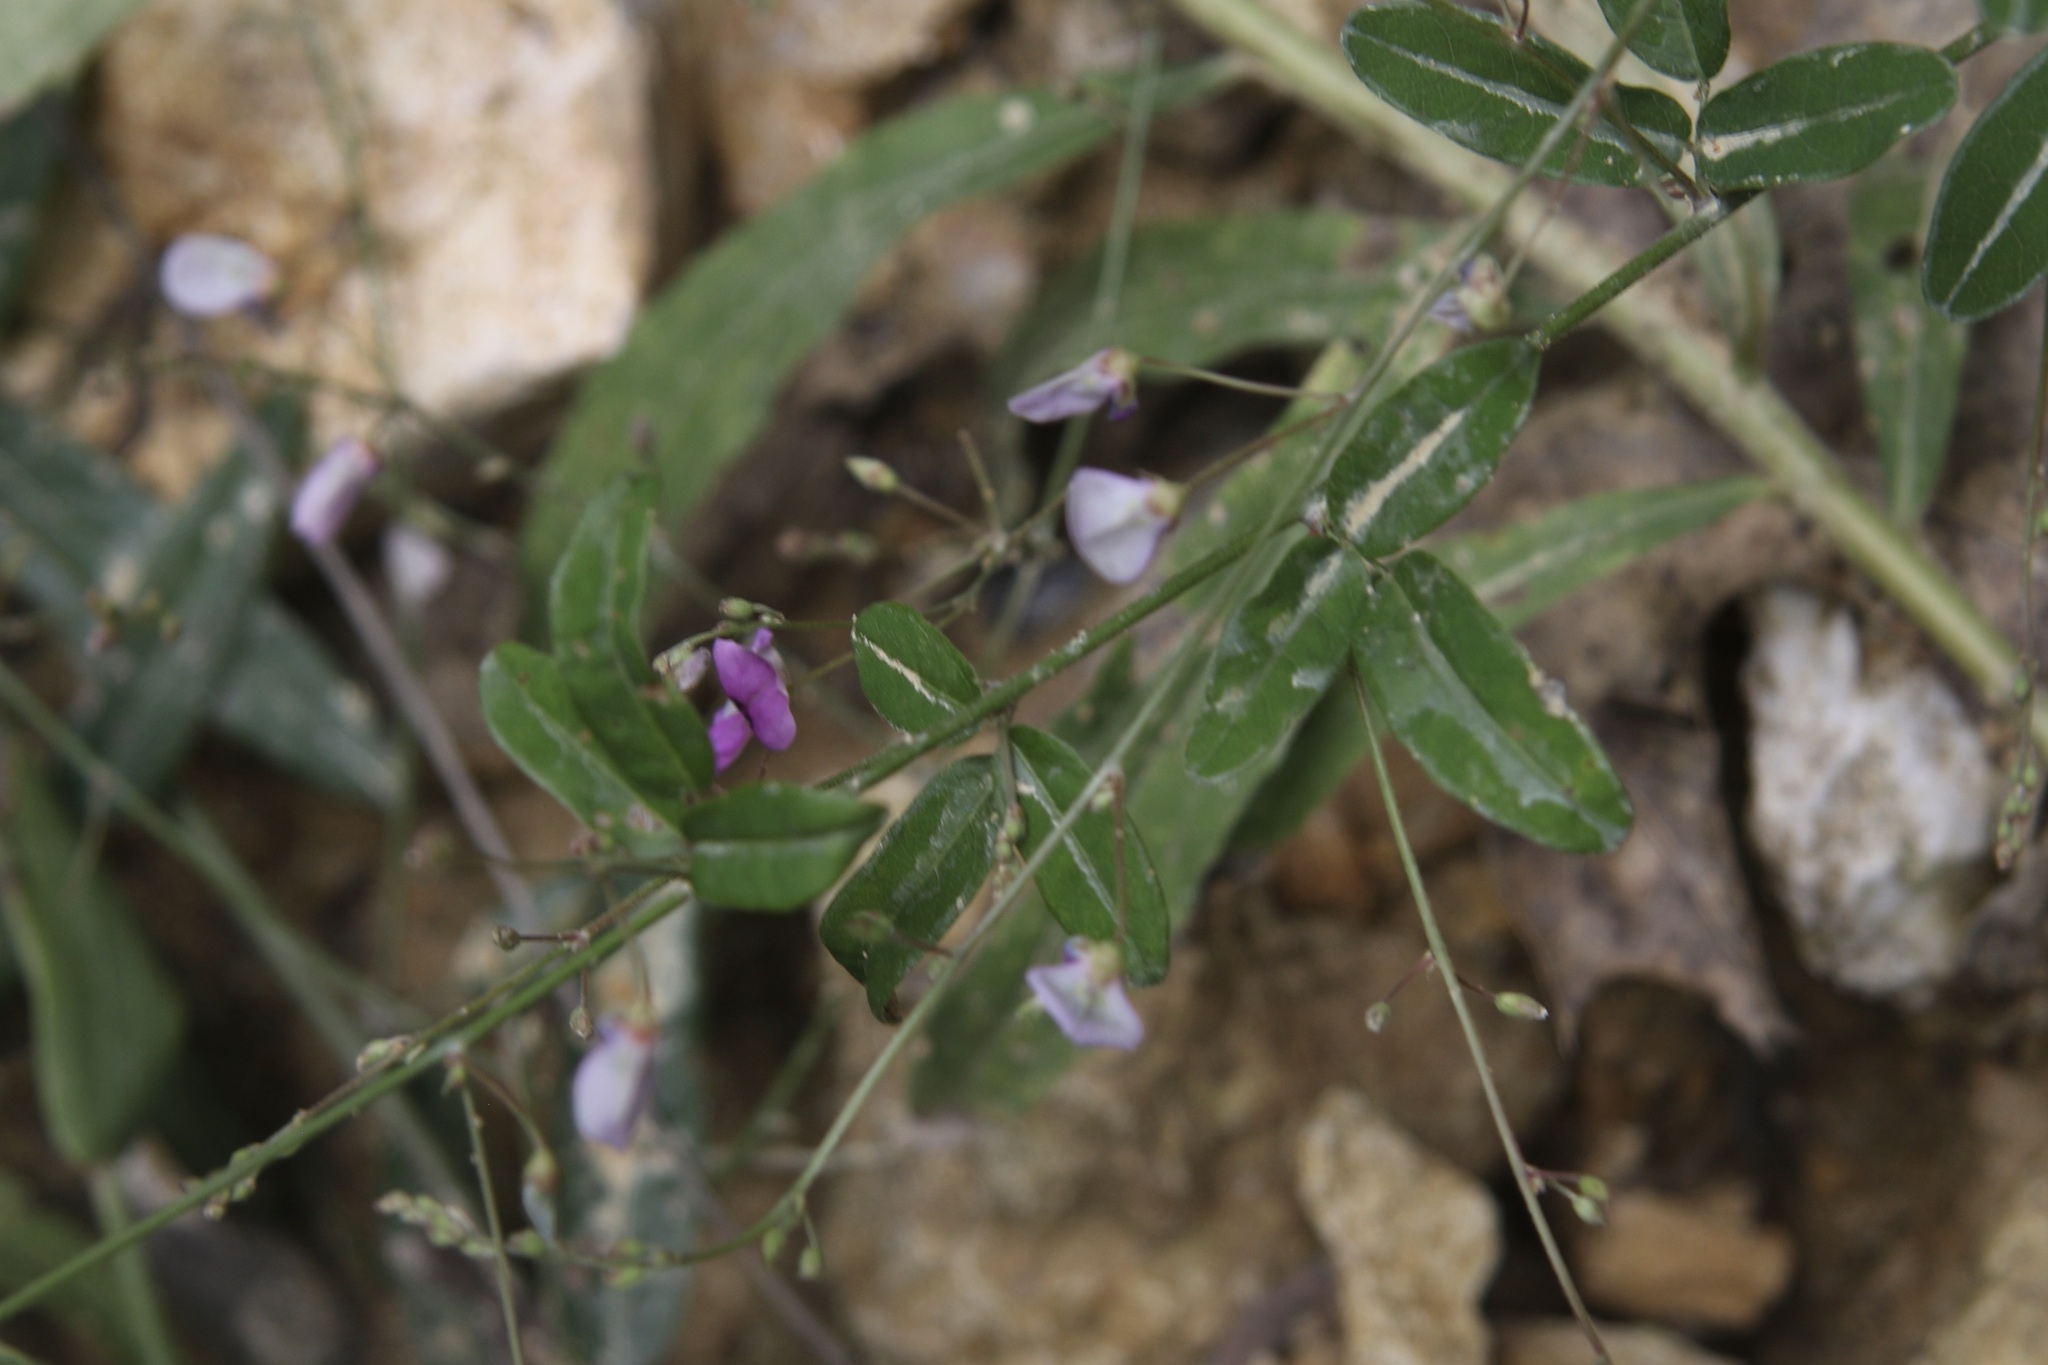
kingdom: Plantae
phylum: Tracheophyta
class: Magnoliopsida
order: Fabales
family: Fabaceae
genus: Desmodium
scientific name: Desmodium paniculatum
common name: Panicled tick-clover
